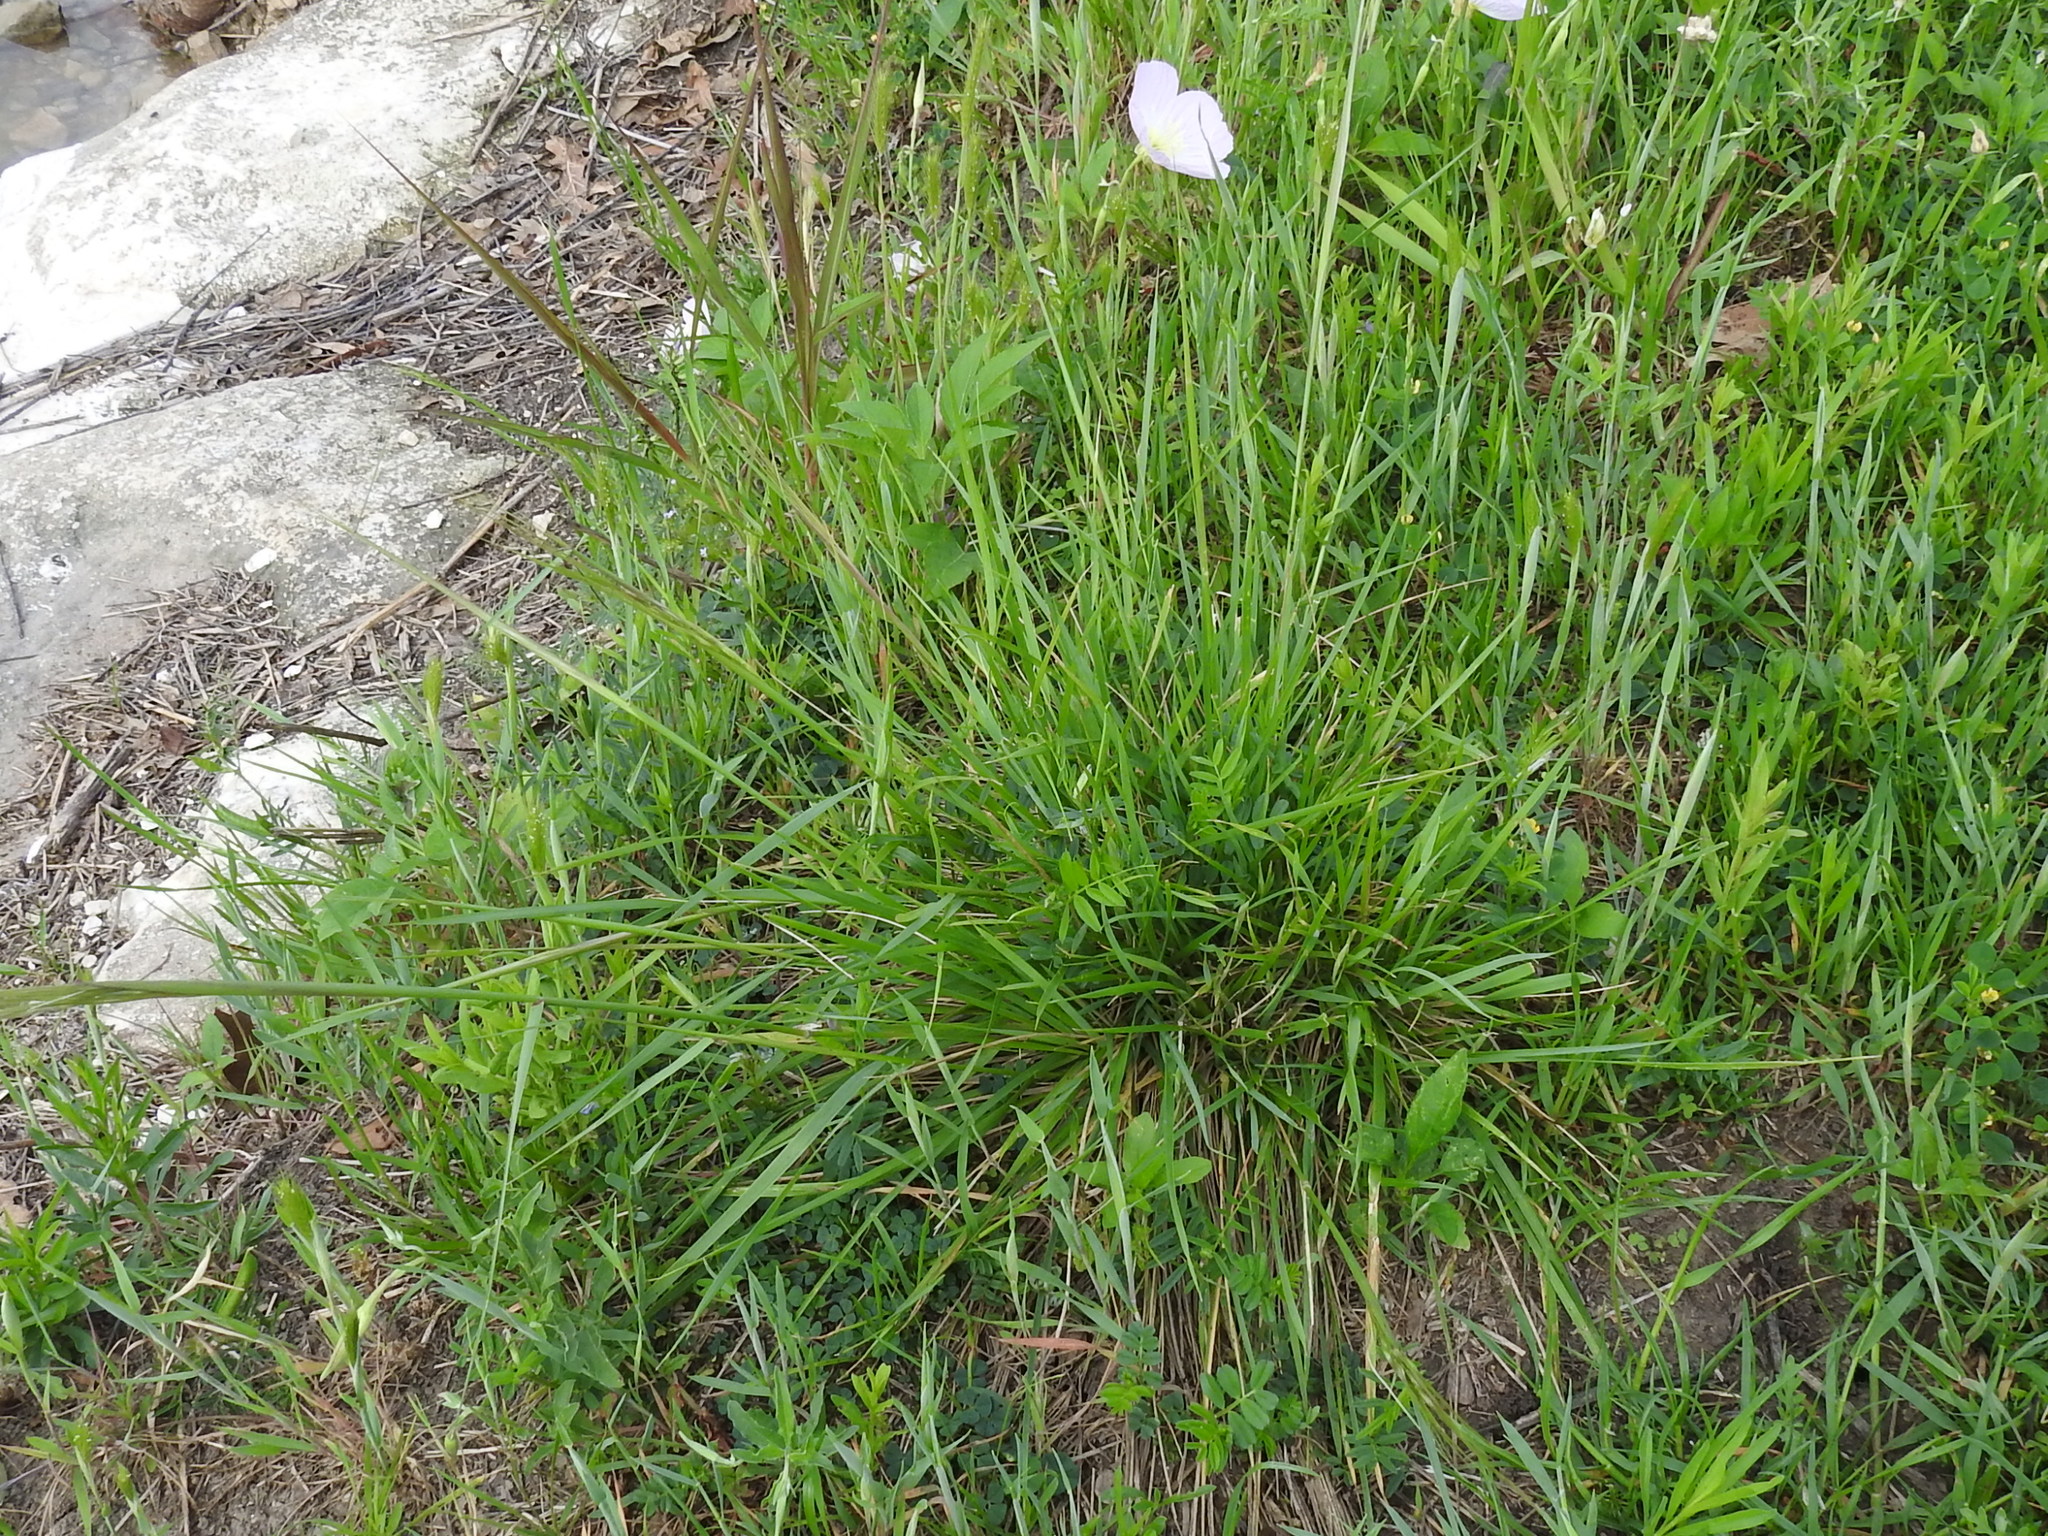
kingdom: Plantae
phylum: Tracheophyta
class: Liliopsida
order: Poales
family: Poaceae
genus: Nassella
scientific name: Nassella leucotricha
